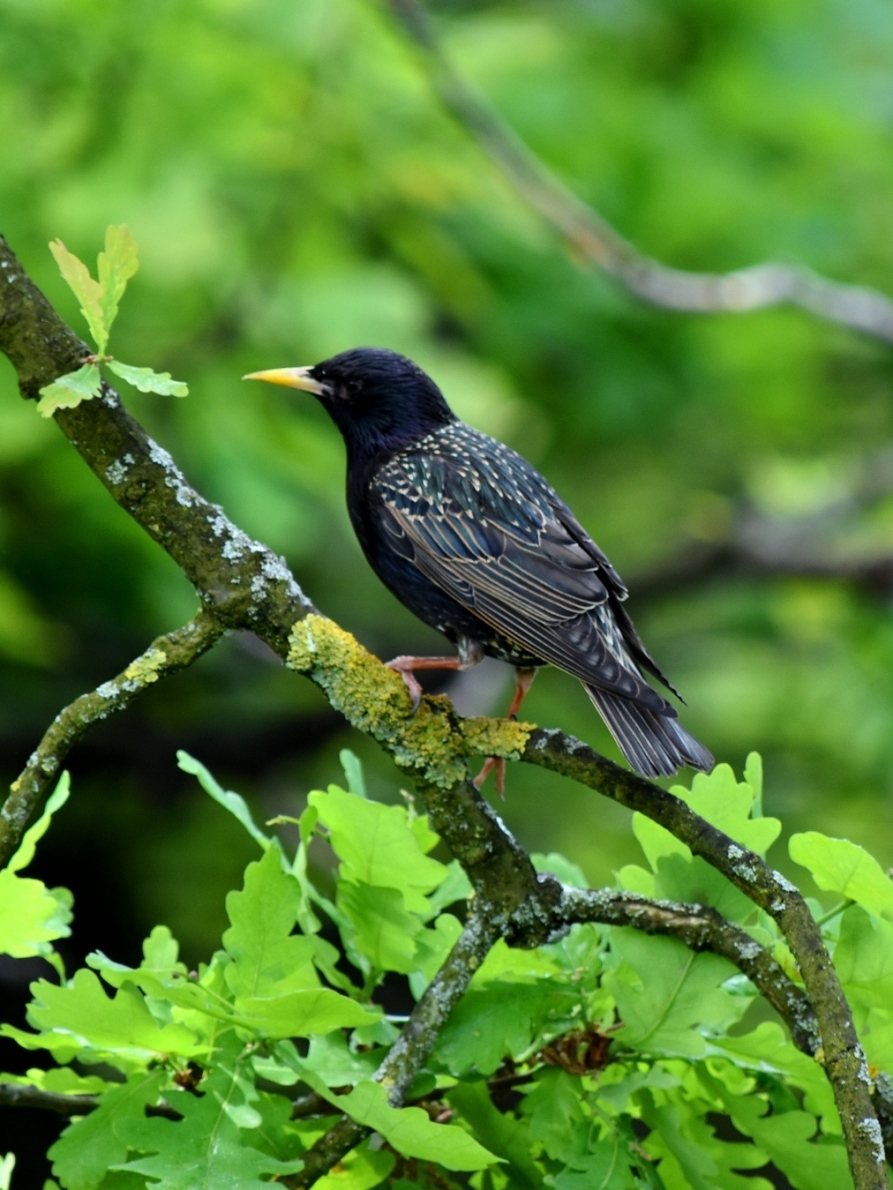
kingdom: Animalia
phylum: Chordata
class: Aves
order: Passeriformes
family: Sturnidae
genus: Sturnus
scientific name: Sturnus vulgaris
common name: Common starling
